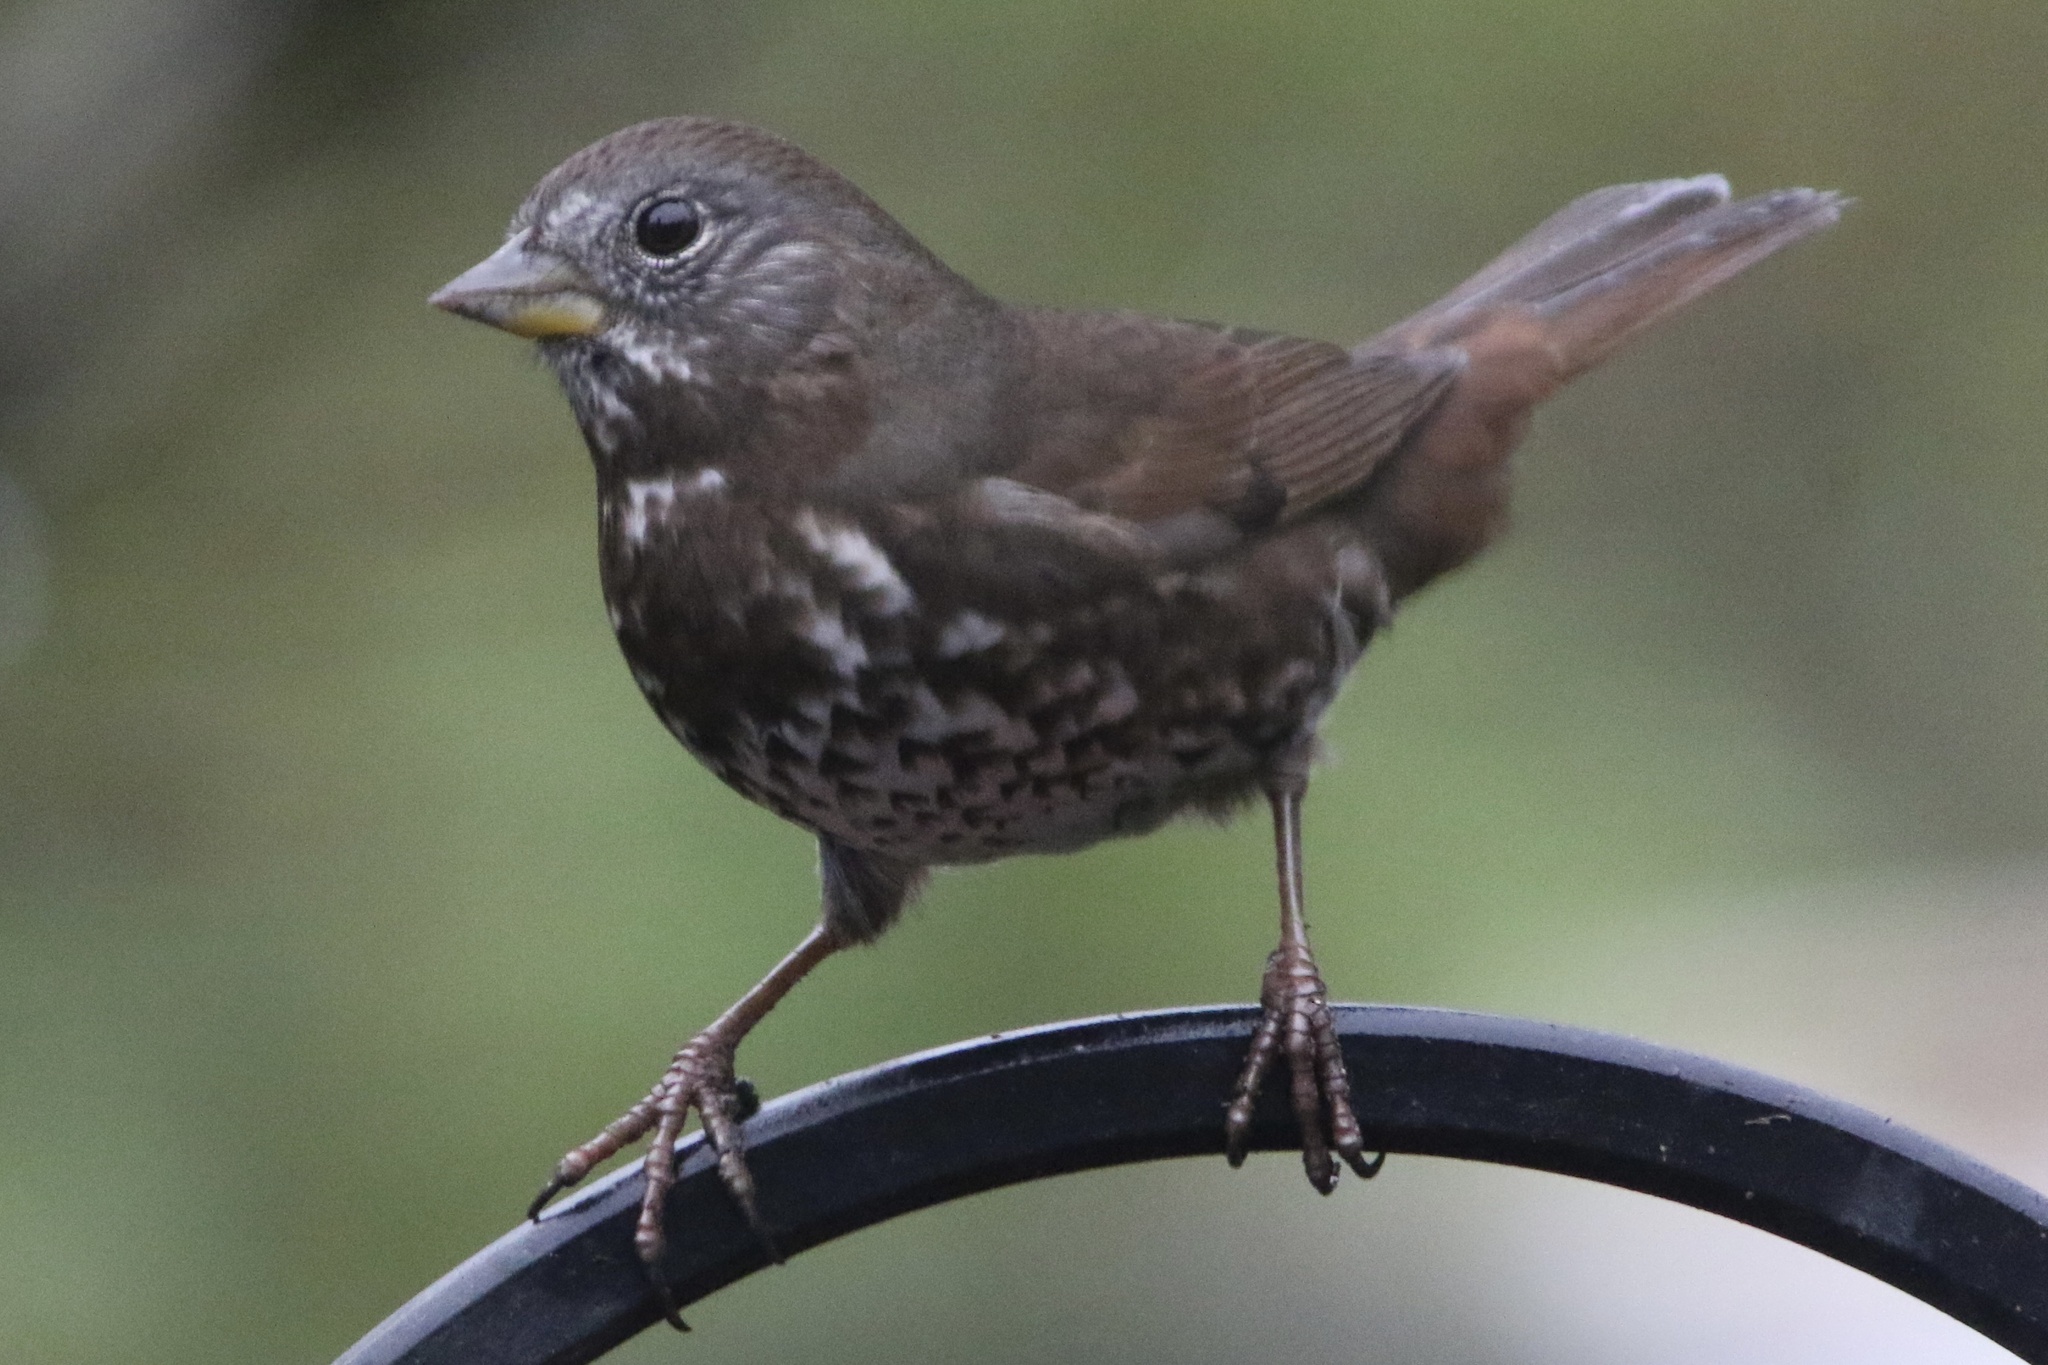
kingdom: Animalia
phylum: Chordata
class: Aves
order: Passeriformes
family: Passerellidae
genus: Passerella
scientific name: Passerella iliaca
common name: Fox sparrow
